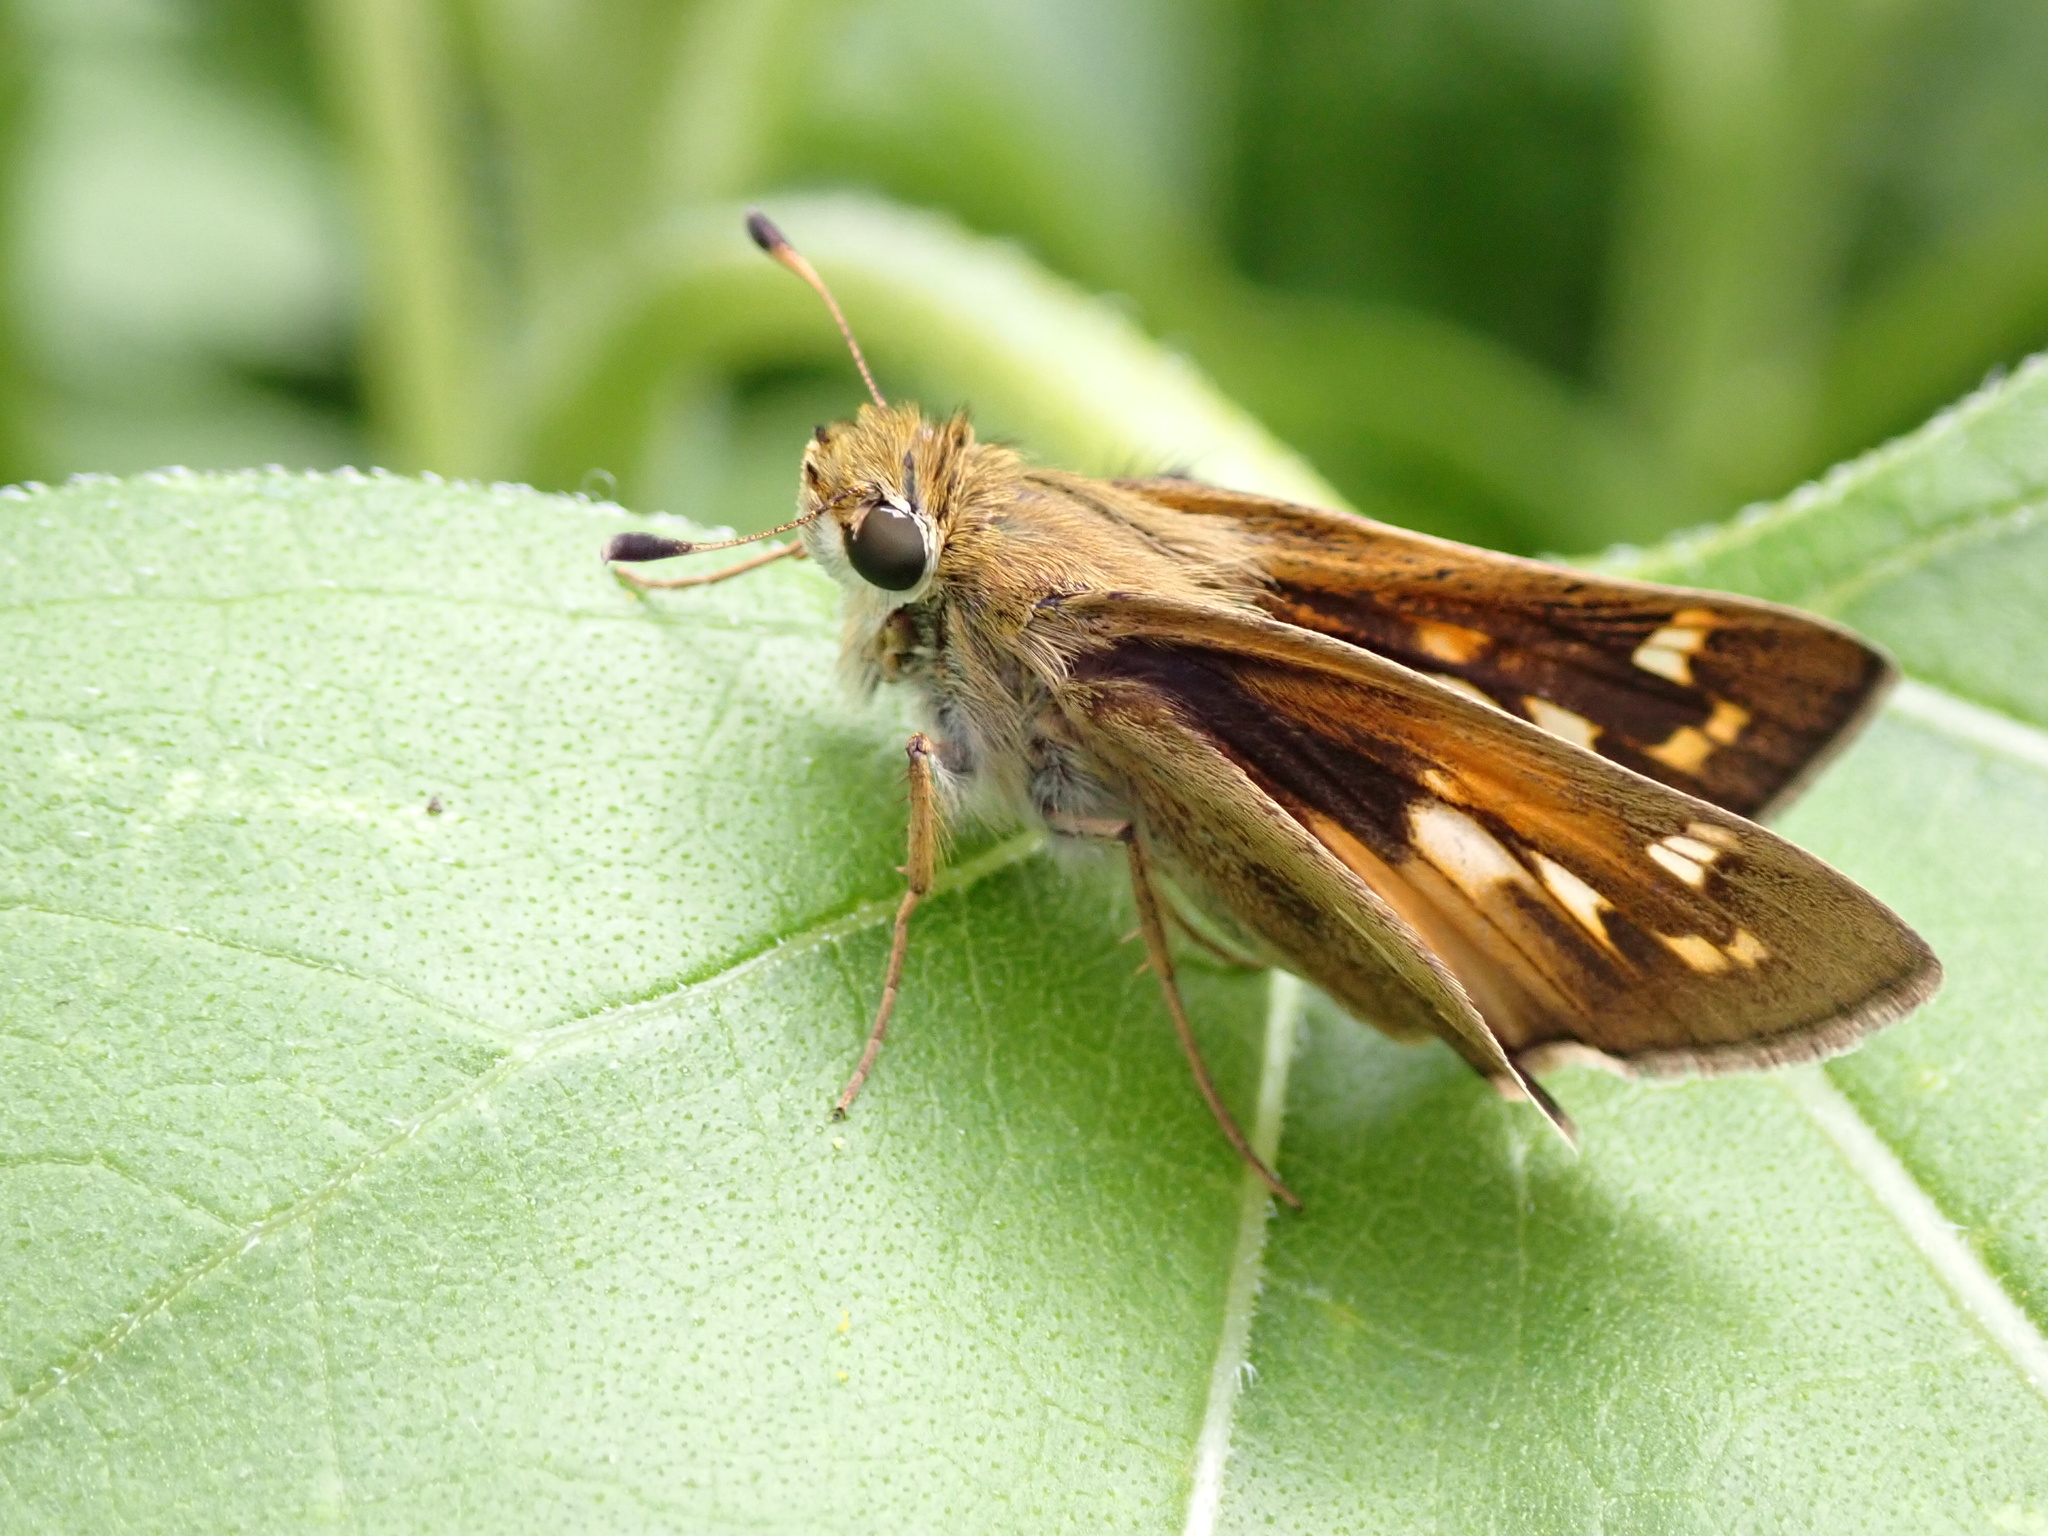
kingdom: Animalia
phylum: Arthropoda
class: Insecta
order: Lepidoptera
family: Hesperiidae
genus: Atalopedes
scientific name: Atalopedes
